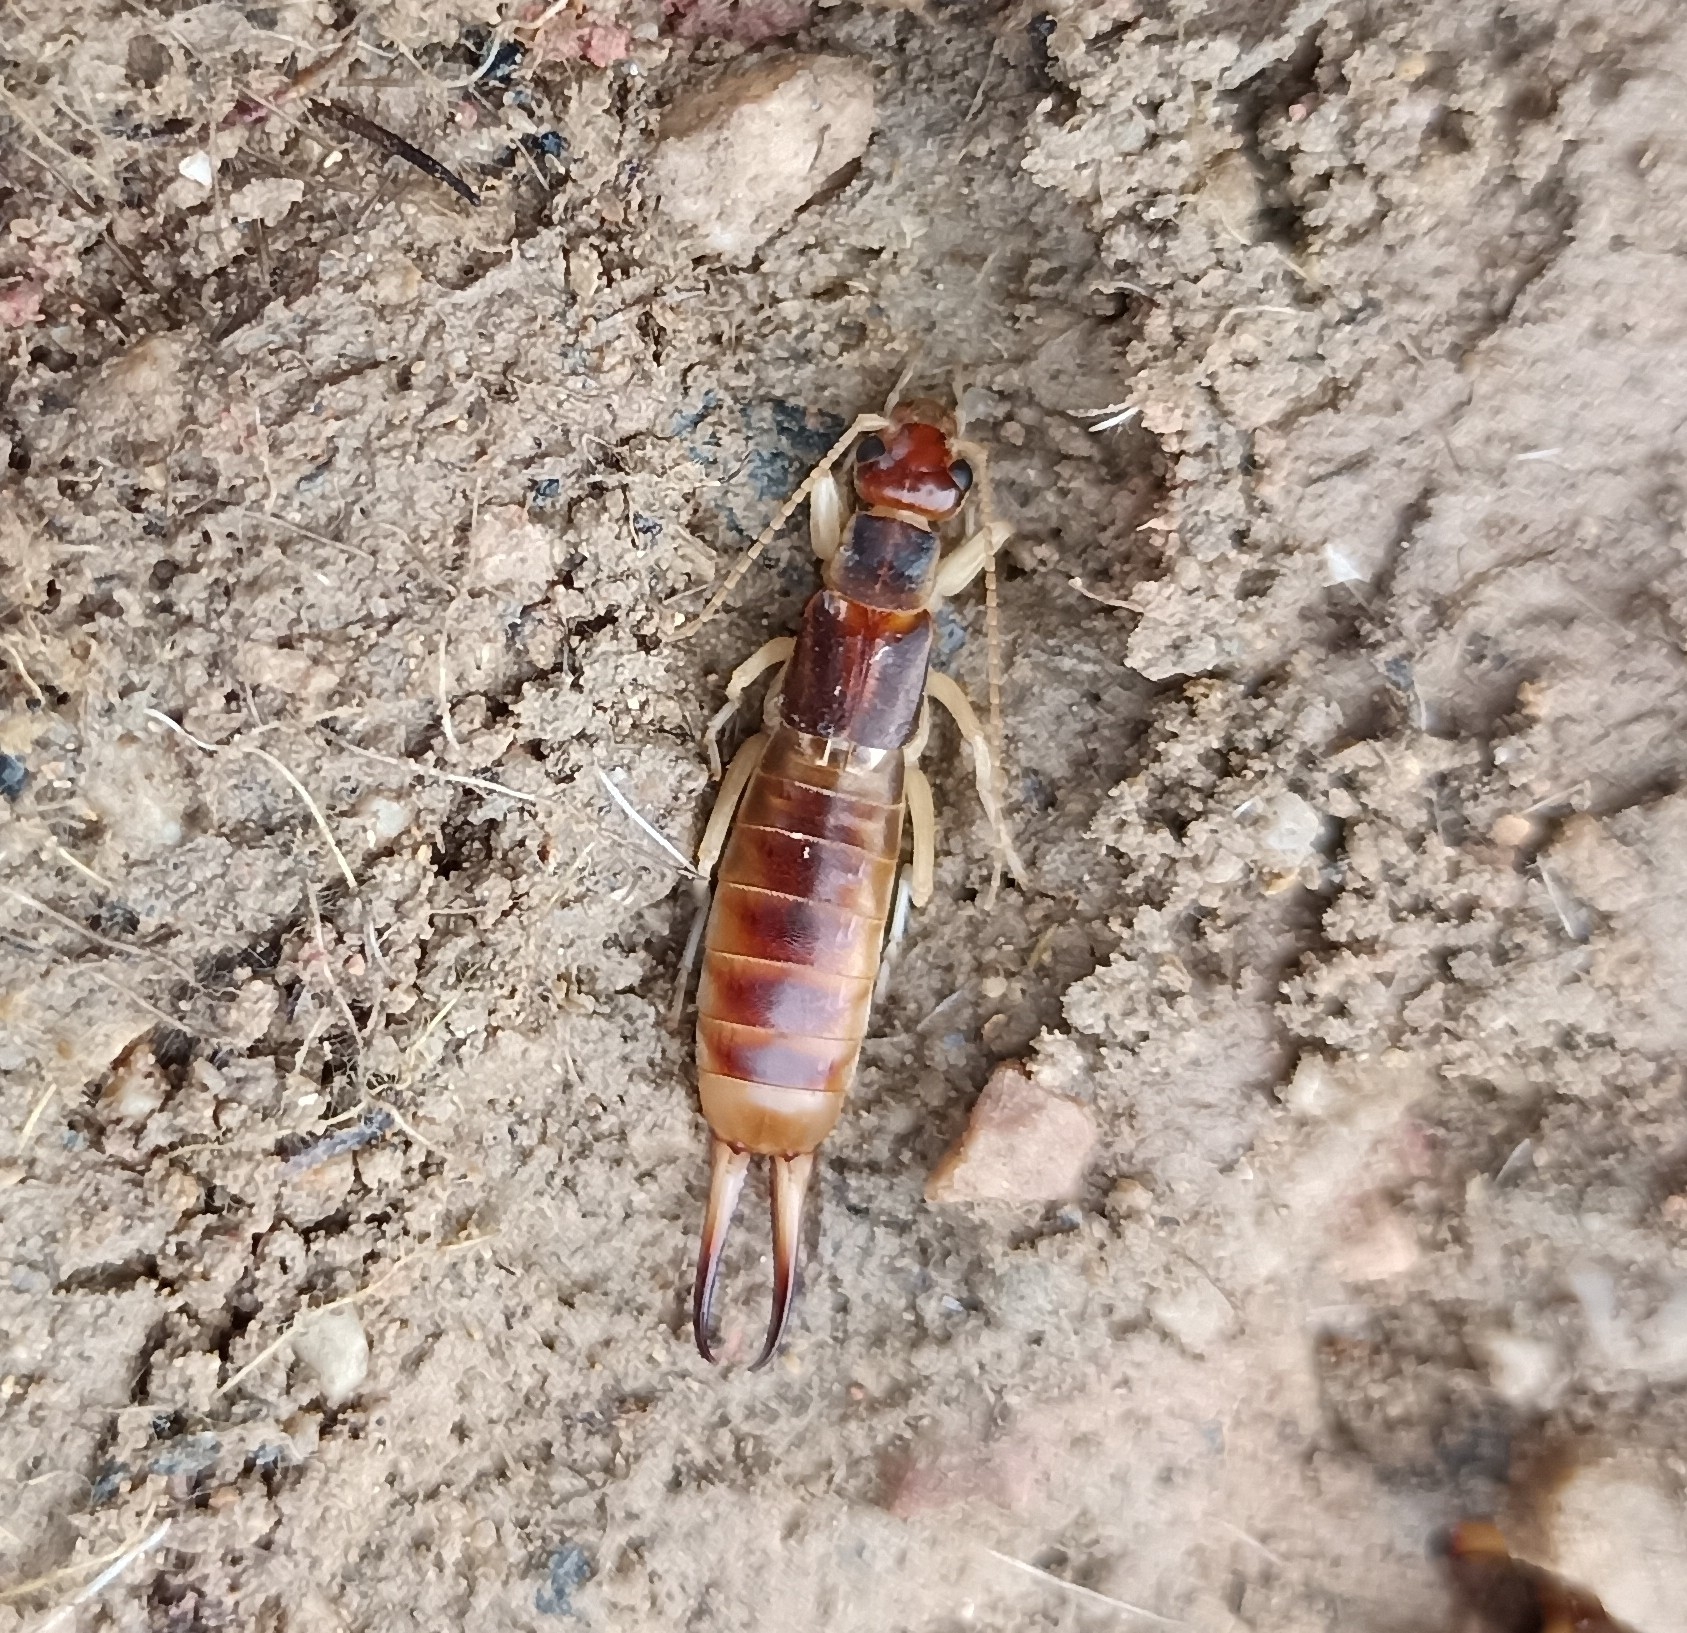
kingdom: Animalia
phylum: Arthropoda
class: Insecta
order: Dermaptera
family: Labiduridae
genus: Labidura
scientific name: Labidura riparia
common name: Striped earwig
